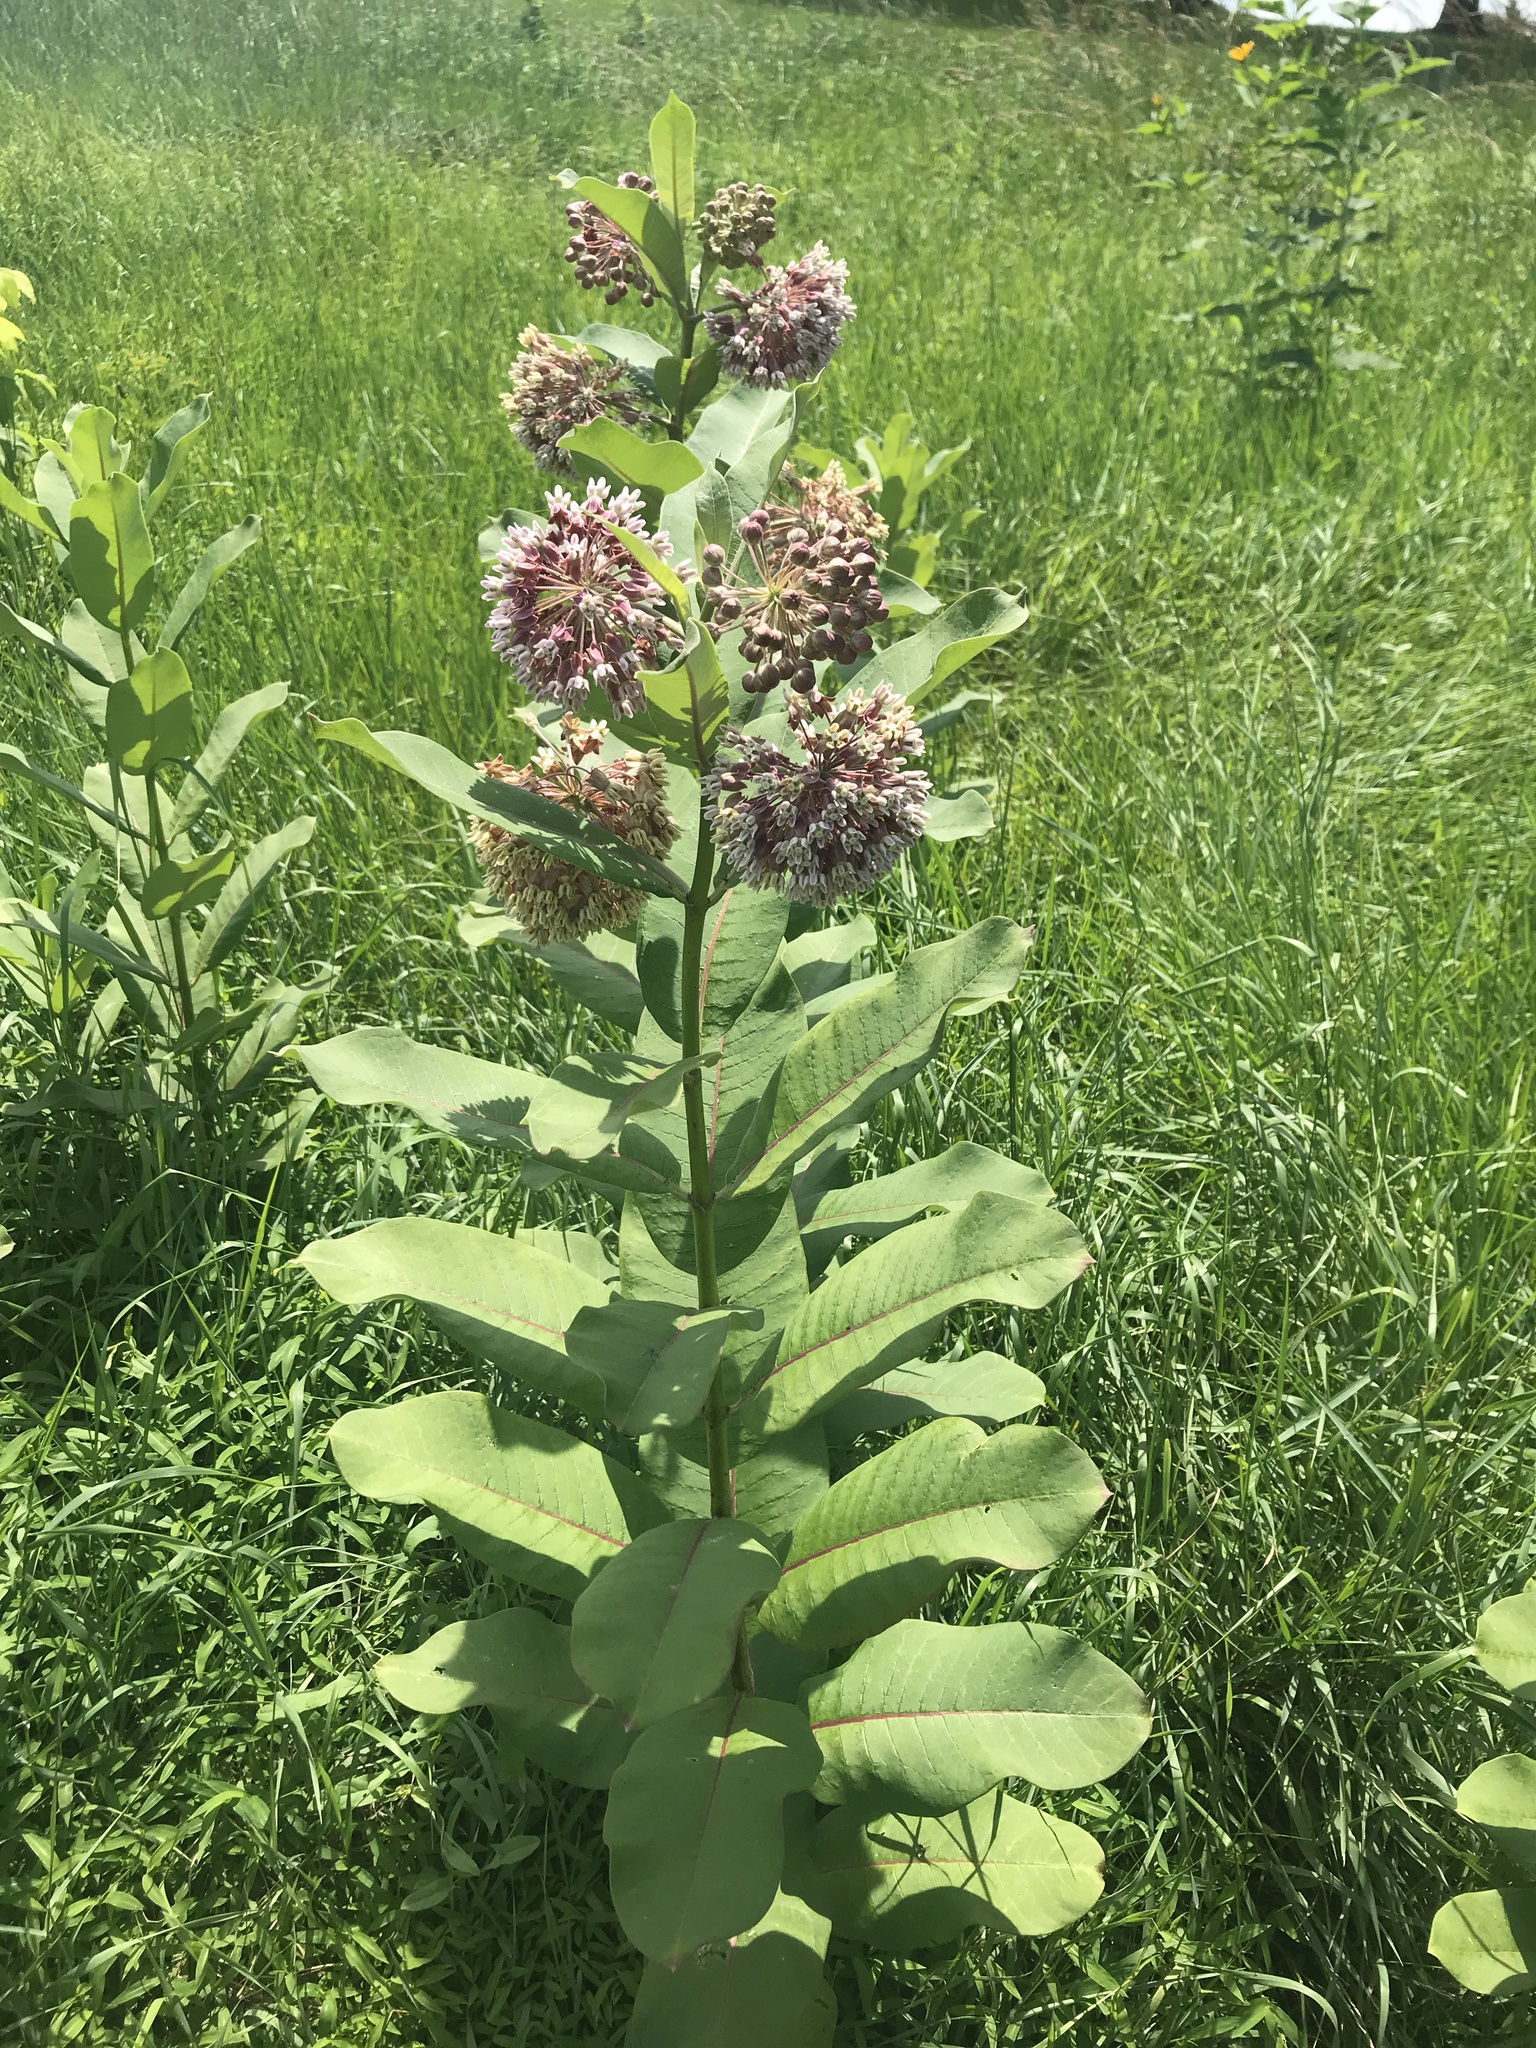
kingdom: Plantae
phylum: Tracheophyta
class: Magnoliopsida
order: Gentianales
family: Apocynaceae
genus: Asclepias
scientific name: Asclepias syriaca
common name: Common milkweed
